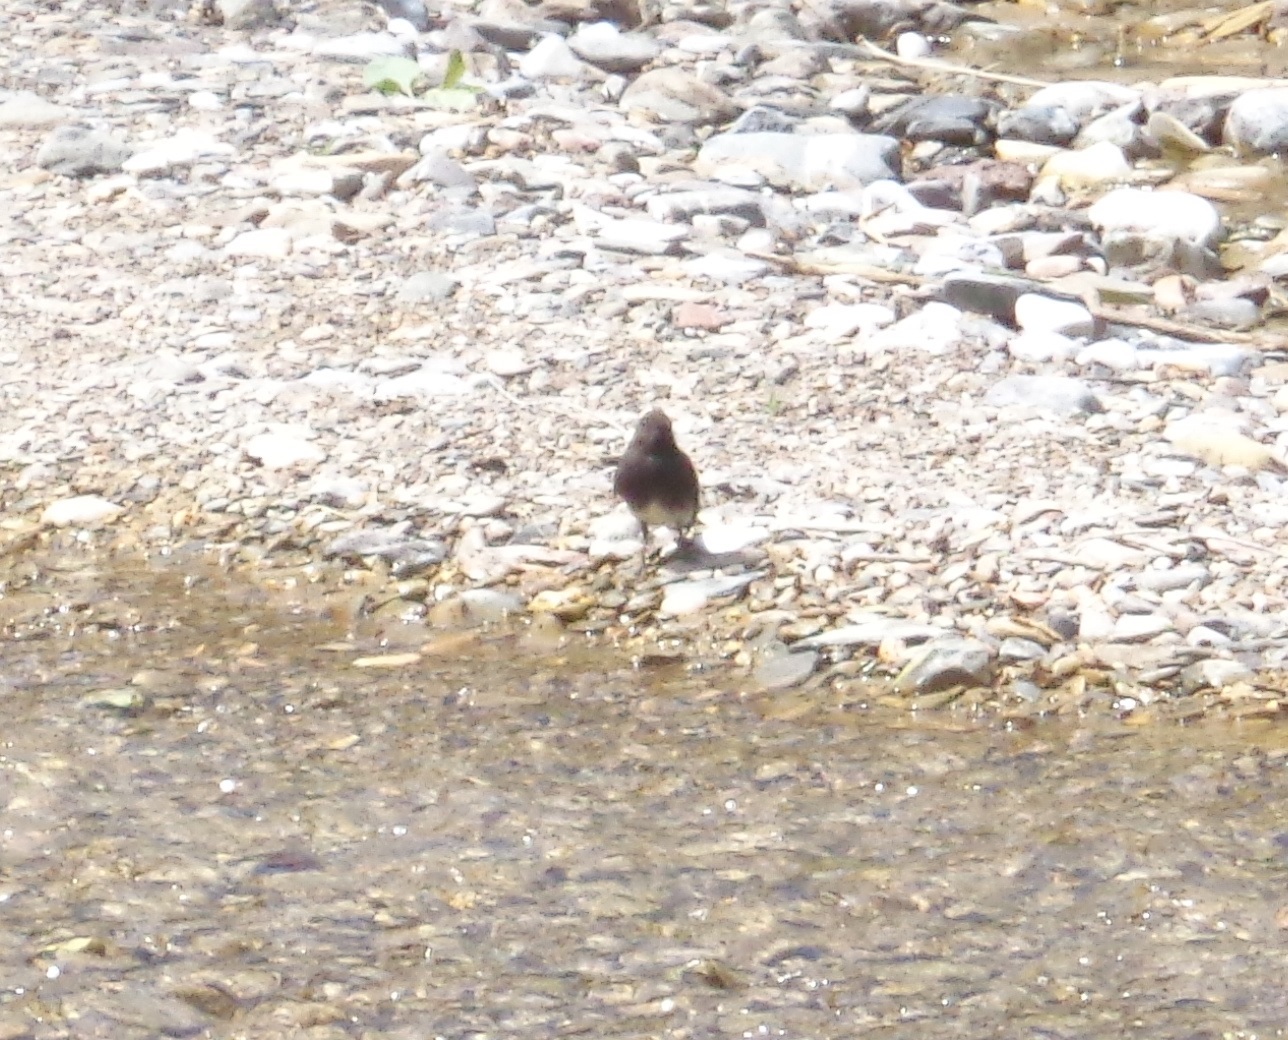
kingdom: Animalia
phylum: Chordata
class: Aves
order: Passeriformes
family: Tyrannidae
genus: Sayornis
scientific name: Sayornis nigricans
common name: Black phoebe
